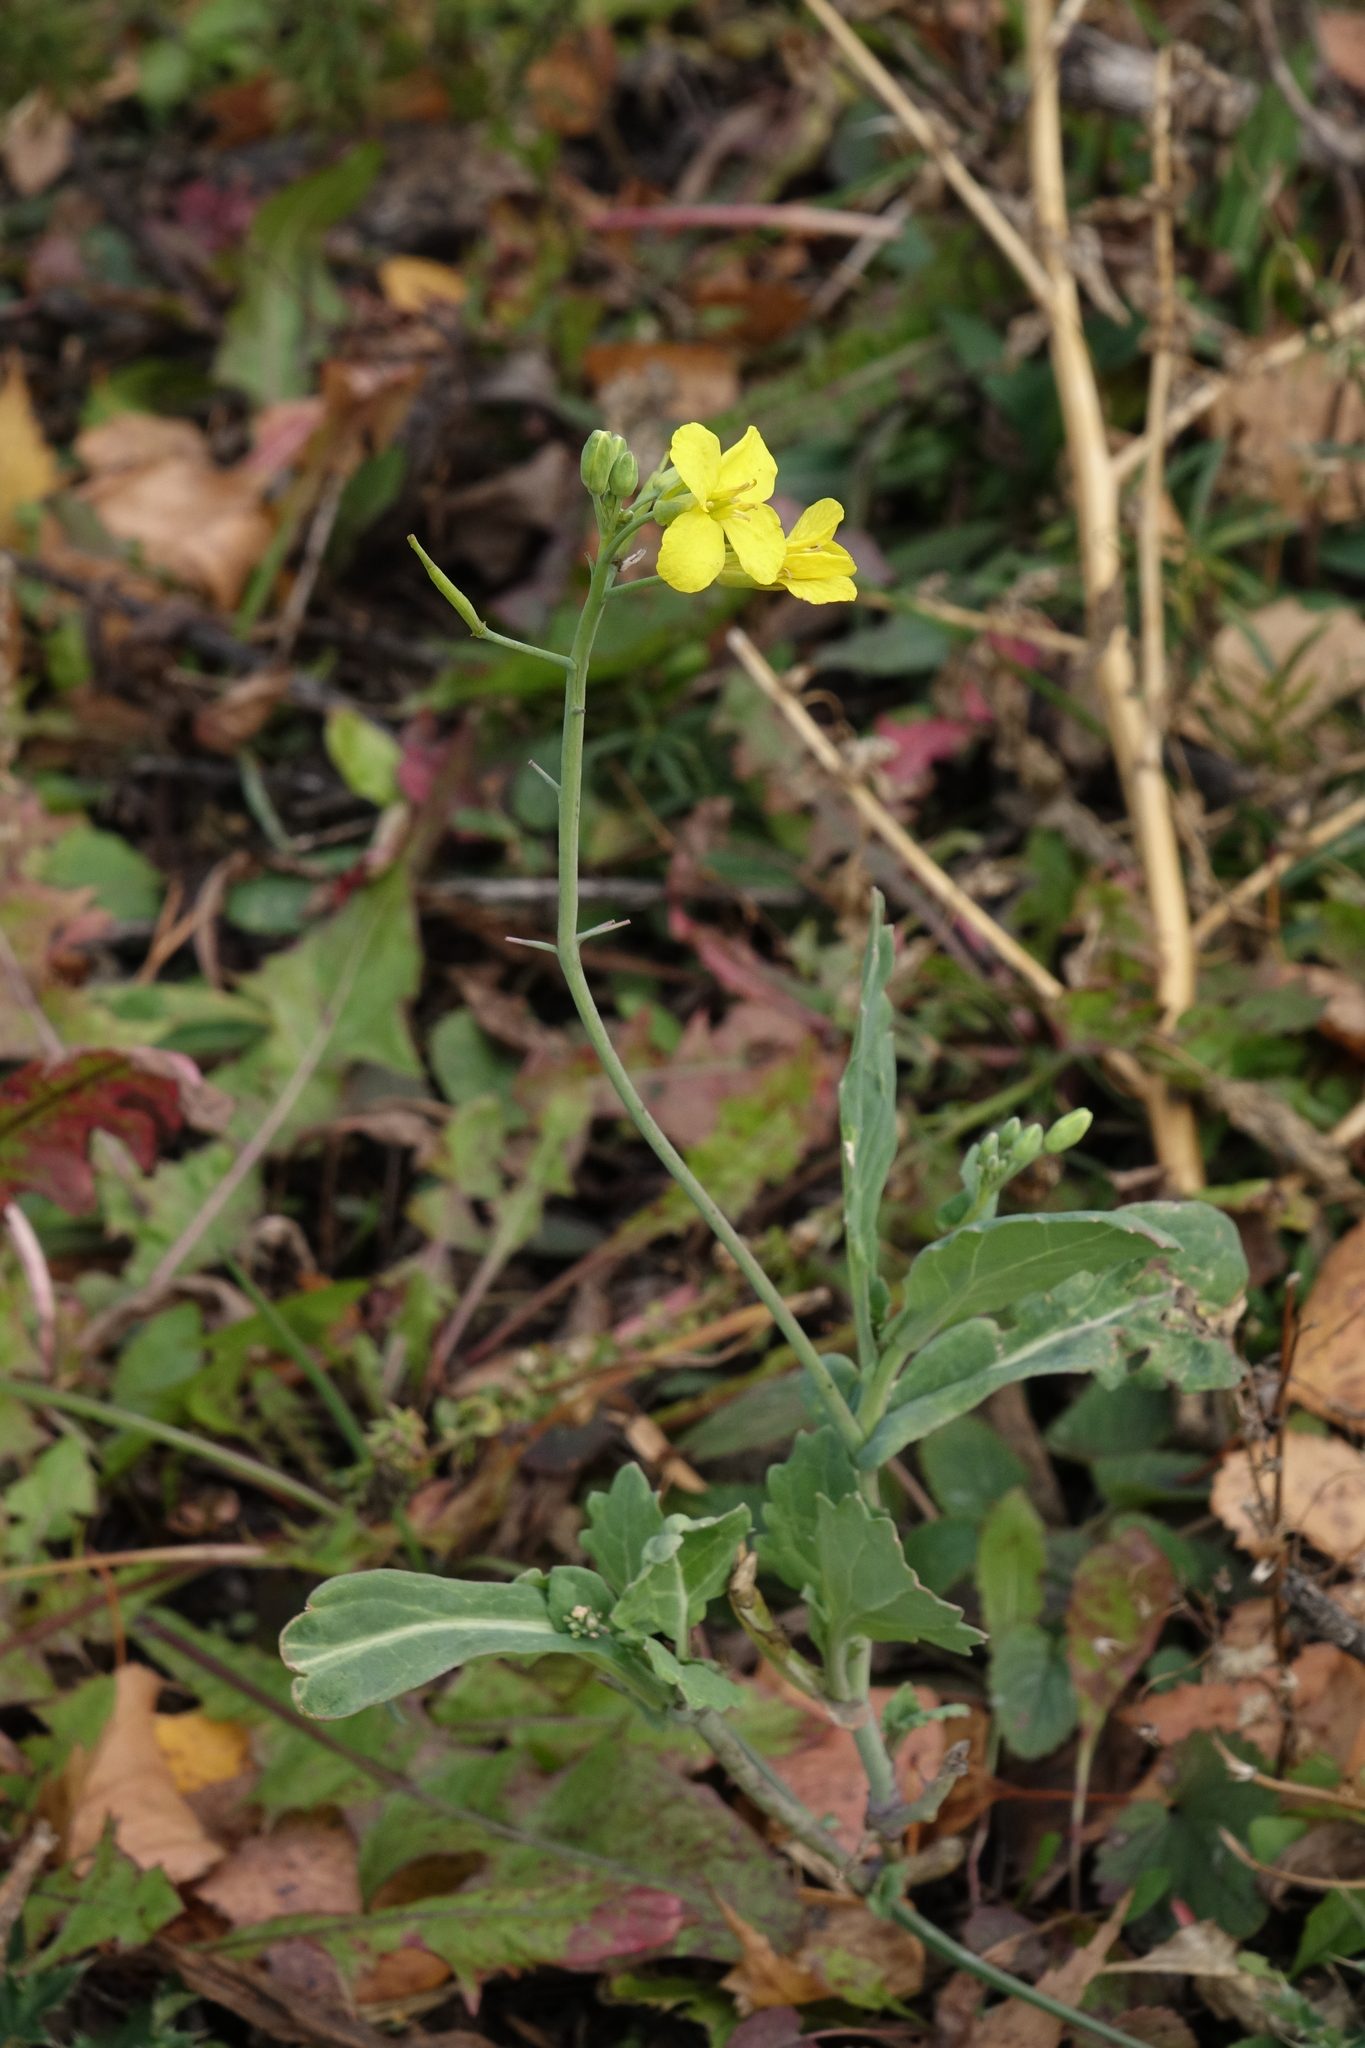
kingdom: Plantae
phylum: Tracheophyta
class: Magnoliopsida
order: Brassicales
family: Brassicaceae
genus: Brassica
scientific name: Brassica napus
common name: Rape
